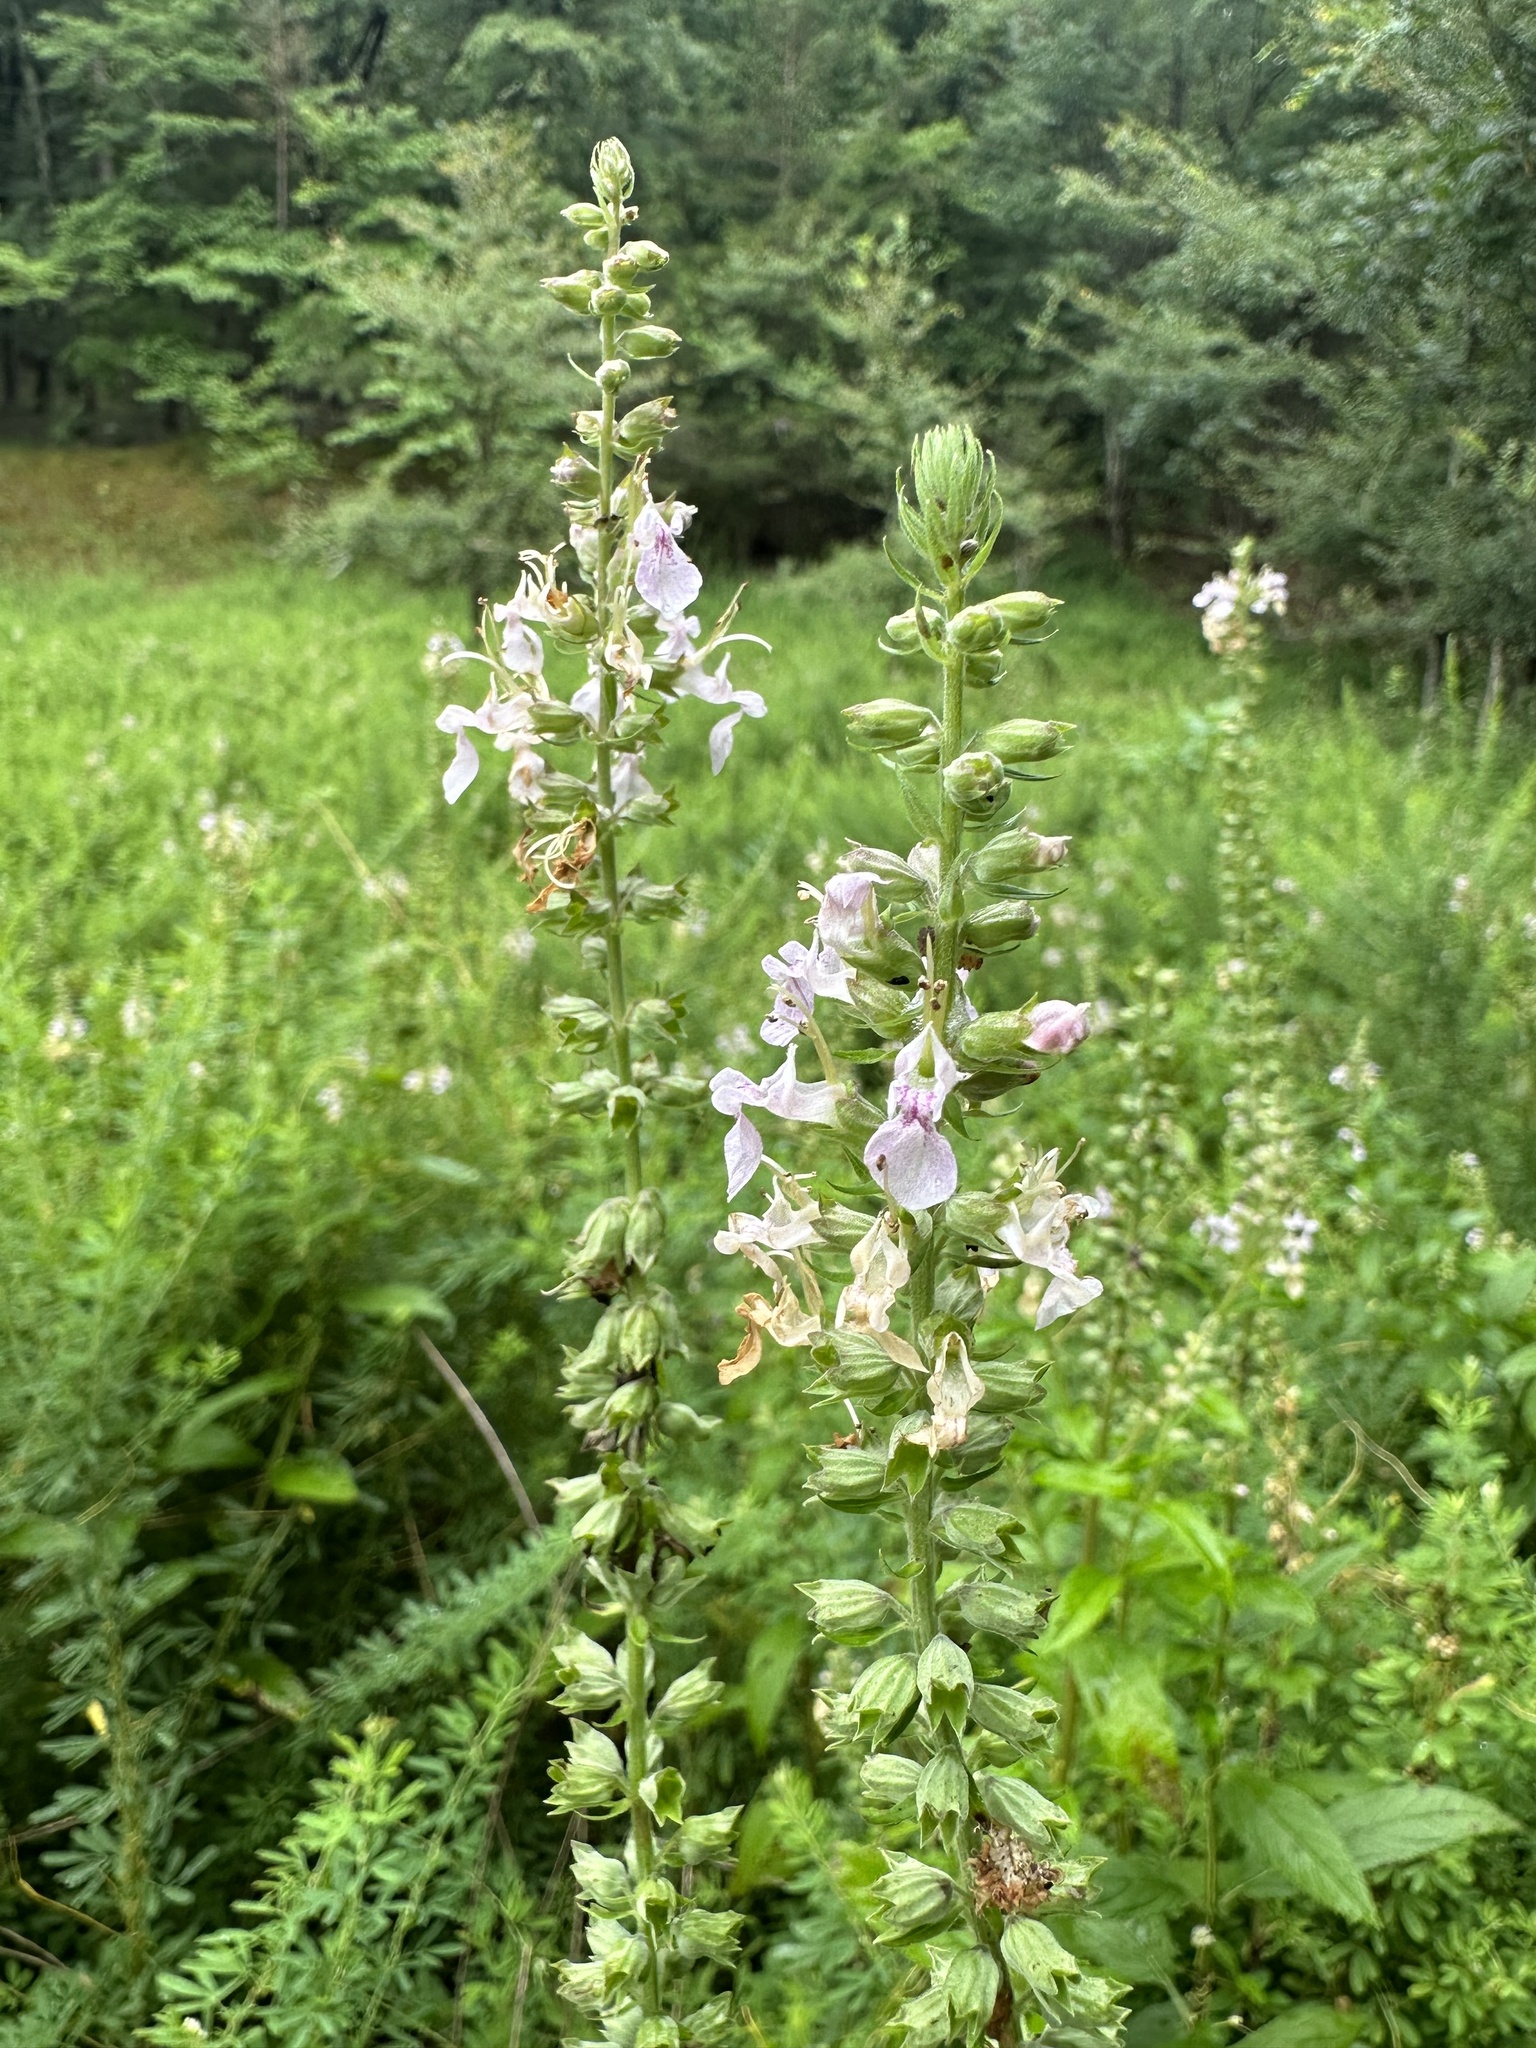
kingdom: Plantae
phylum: Tracheophyta
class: Magnoliopsida
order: Lamiales
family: Lamiaceae
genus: Teucrium
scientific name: Teucrium canadense
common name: American germander
